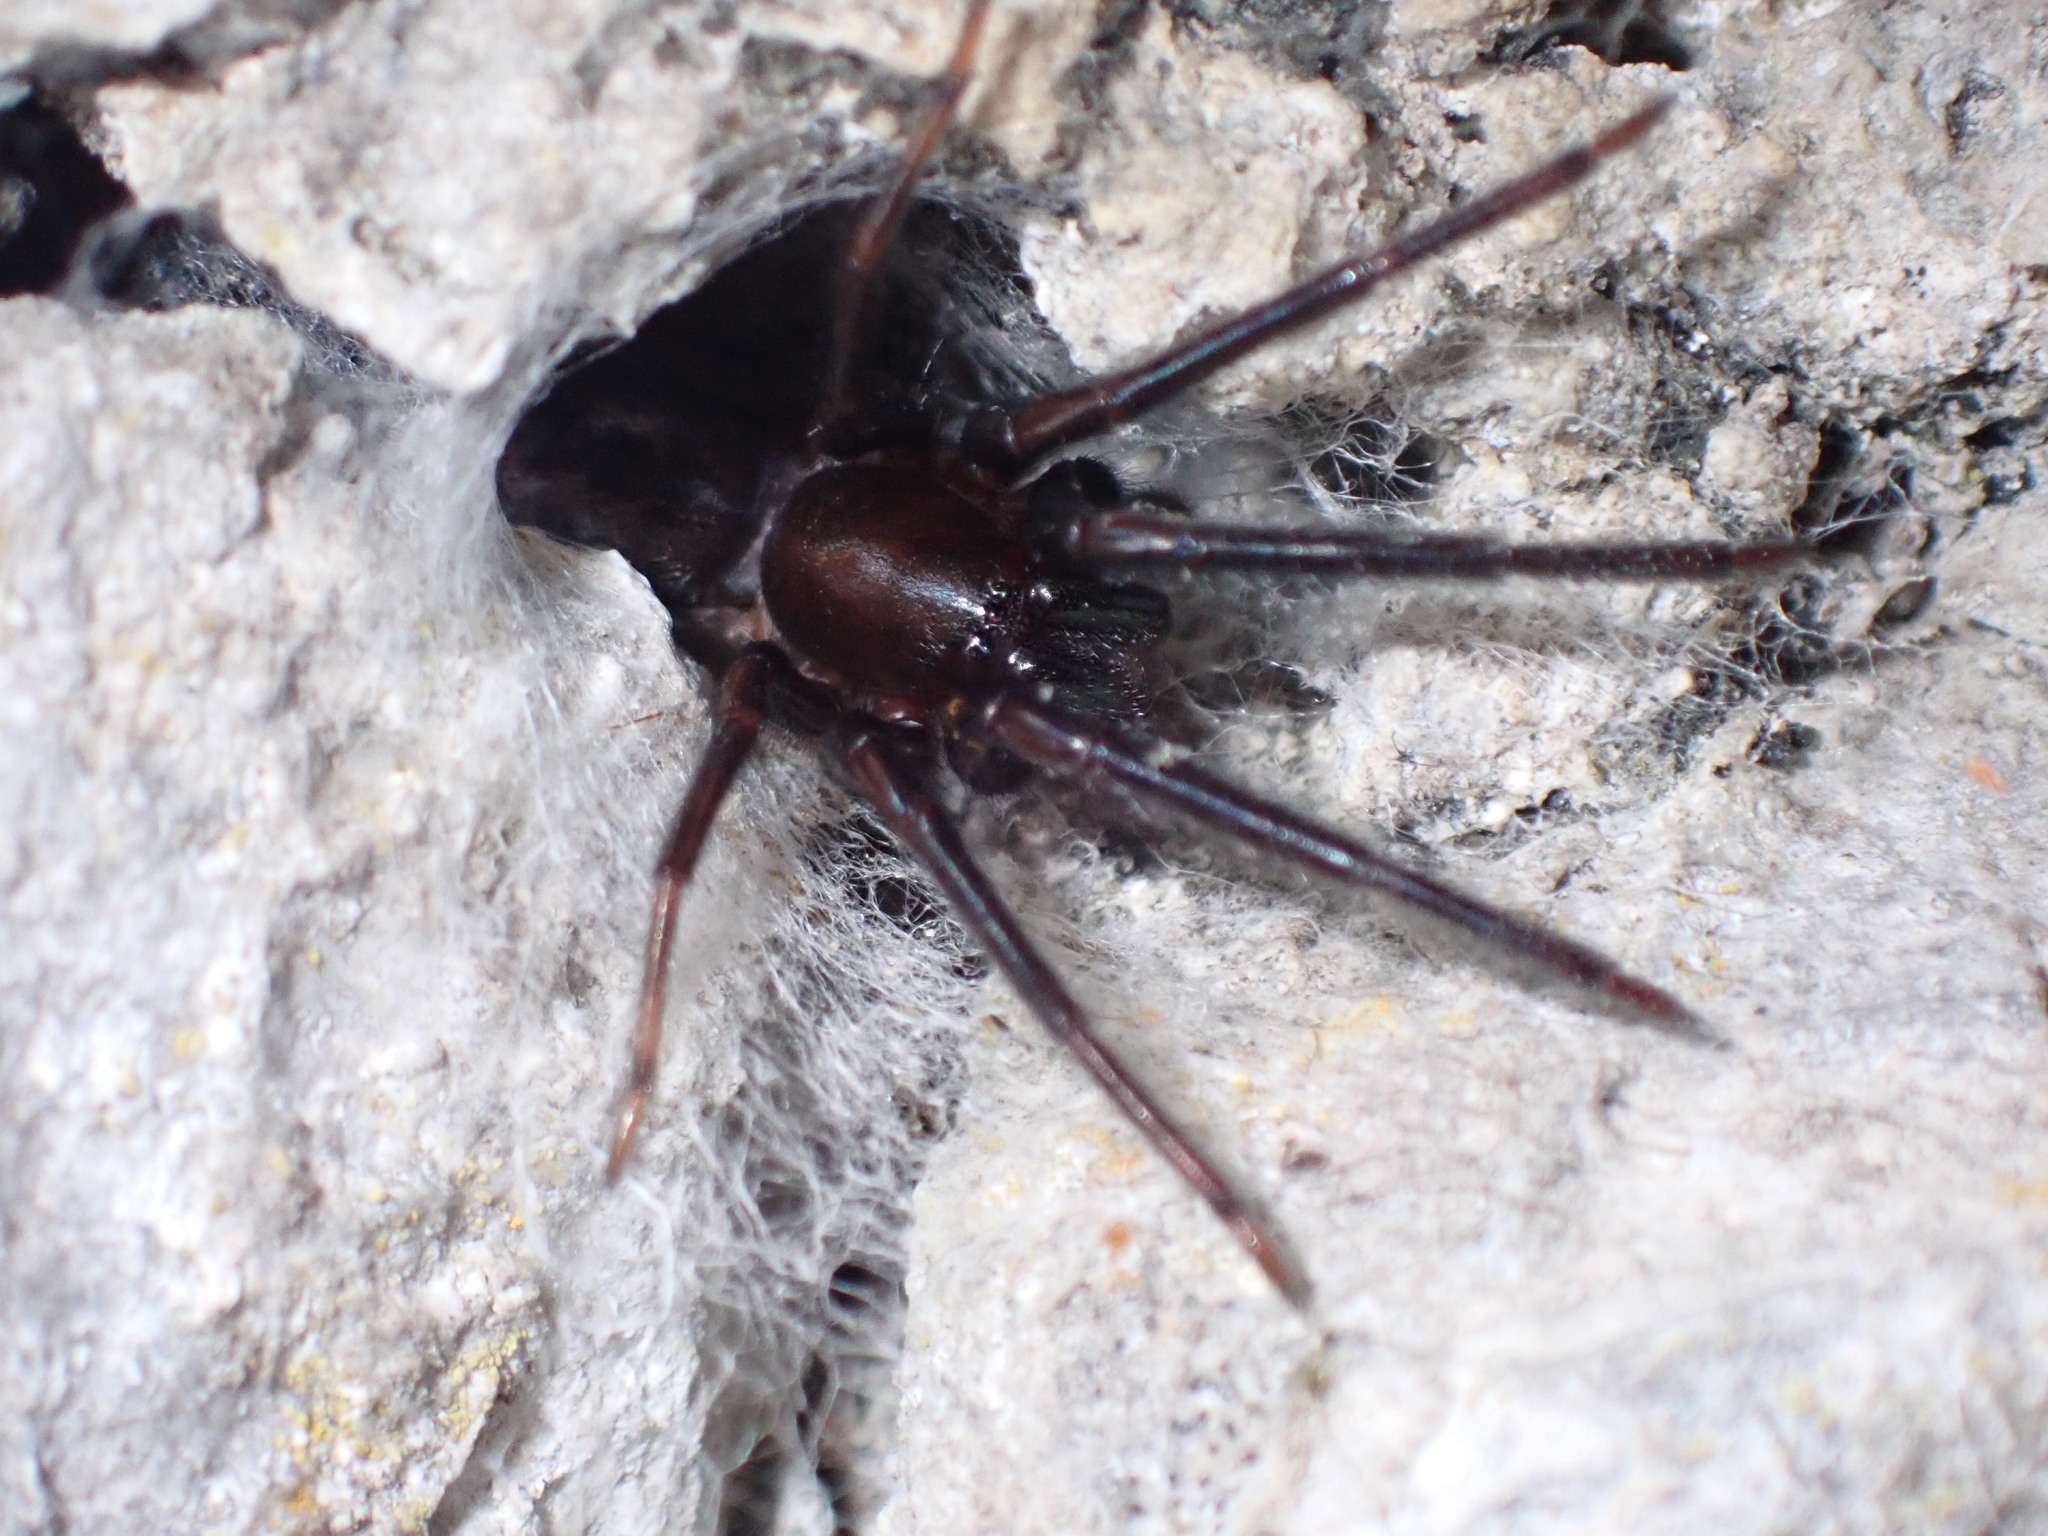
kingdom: Animalia
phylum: Arthropoda
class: Arachnida
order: Araneae
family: Segestriidae
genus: Segestria
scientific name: Segestria florentina
